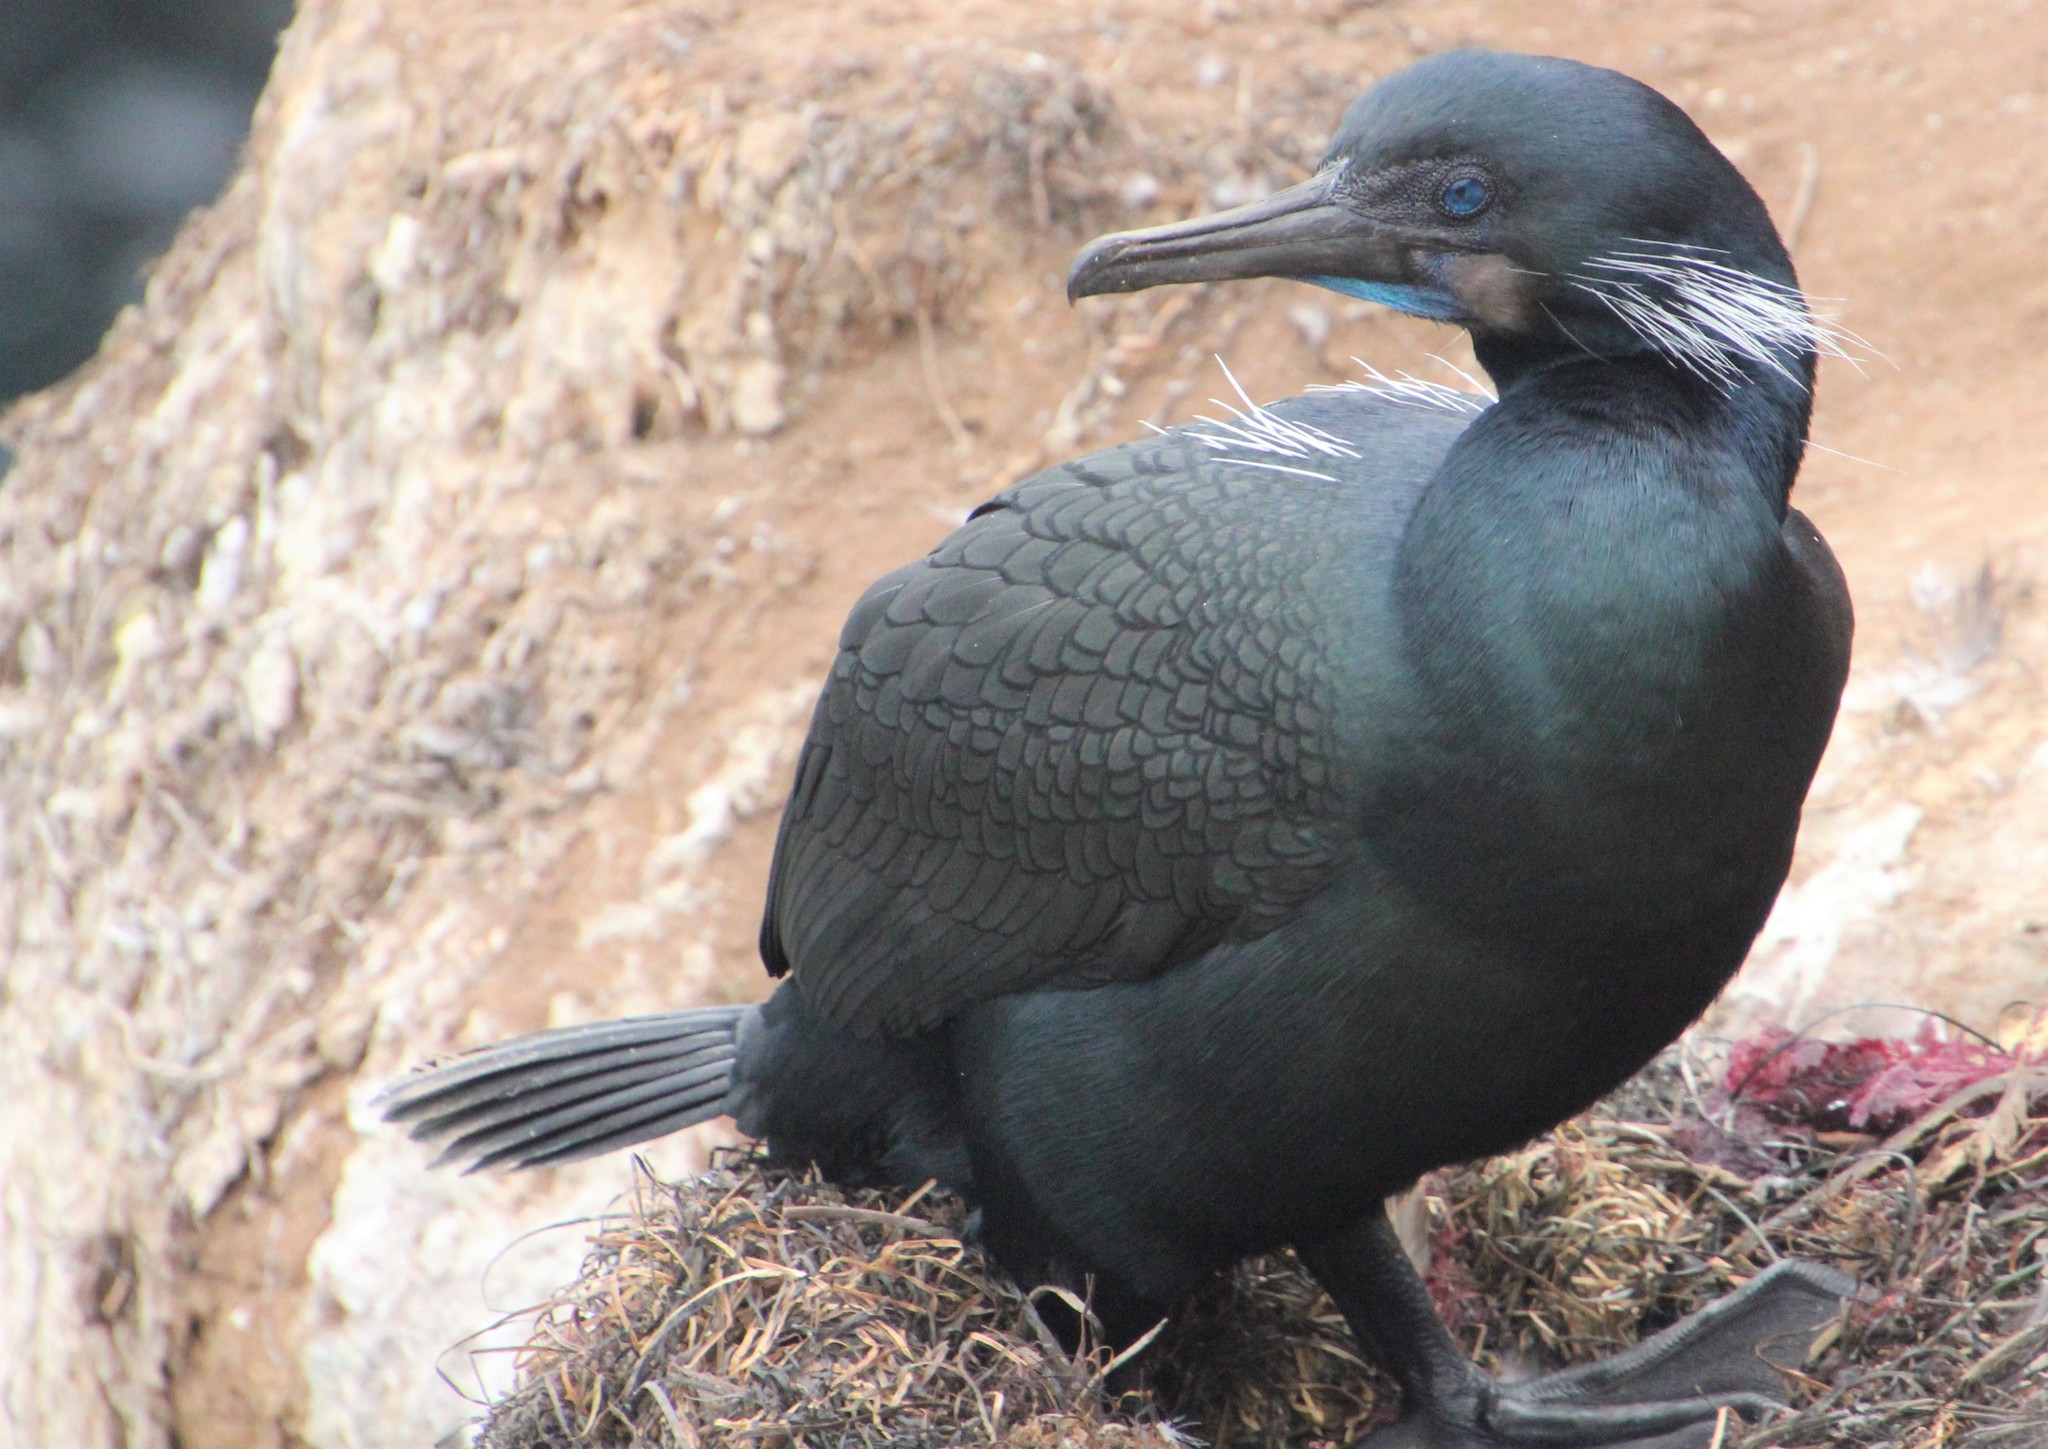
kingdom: Animalia
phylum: Chordata
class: Aves
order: Suliformes
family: Phalacrocoracidae
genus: Urile
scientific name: Urile penicillatus
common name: Brandt's cormorant
